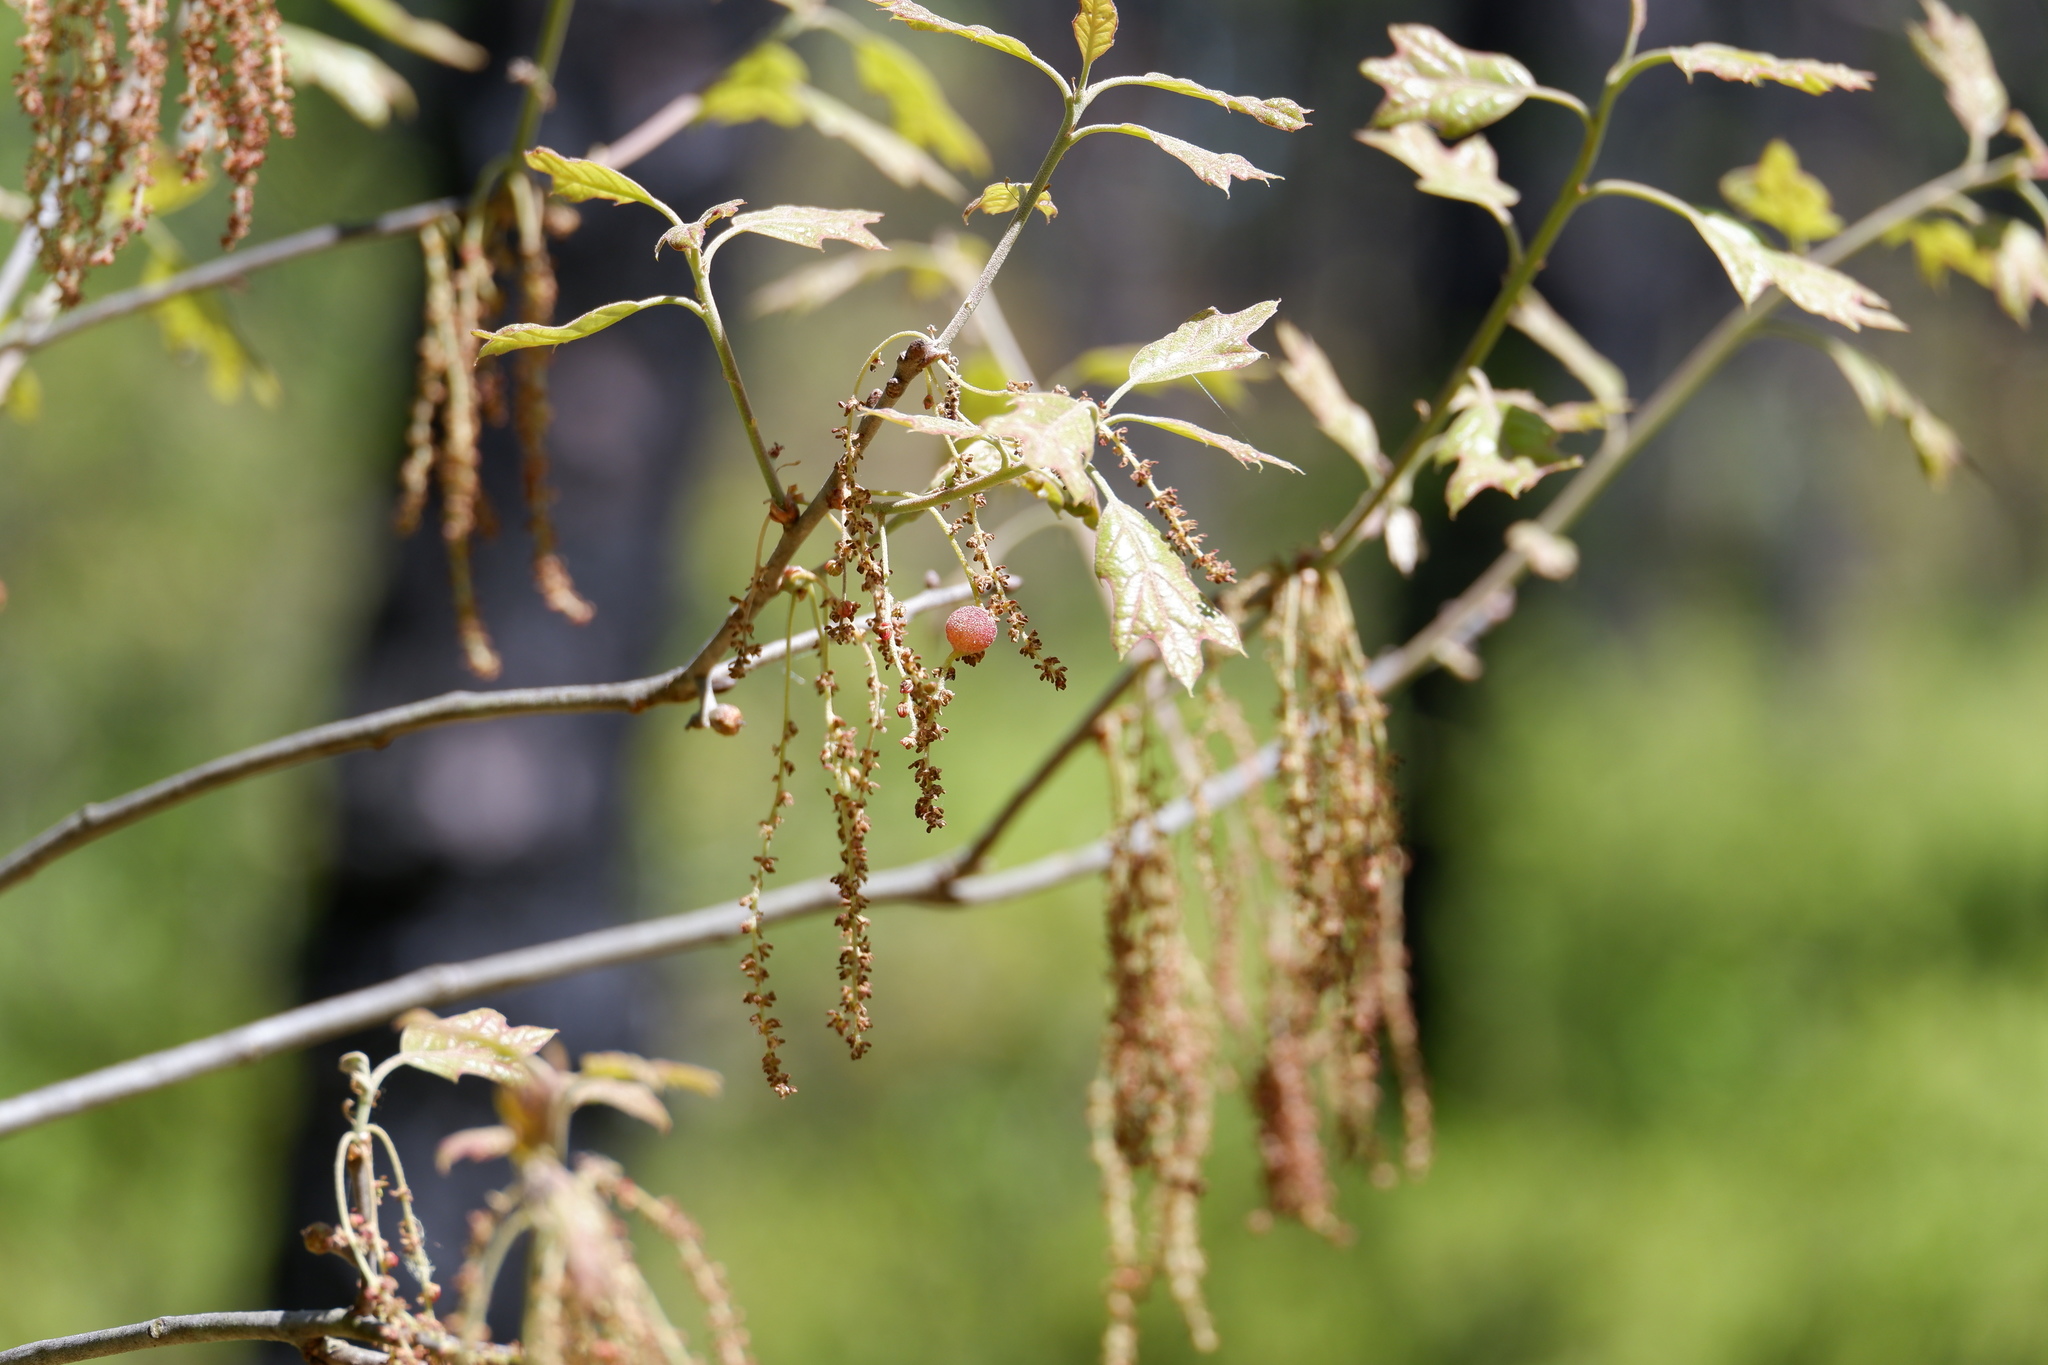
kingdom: Animalia
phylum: Arthropoda
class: Insecta
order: Hymenoptera
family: Cynipidae
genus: Dryocosmus
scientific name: Dryocosmus quercuspalustris
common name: Succulent oak gall wasp
